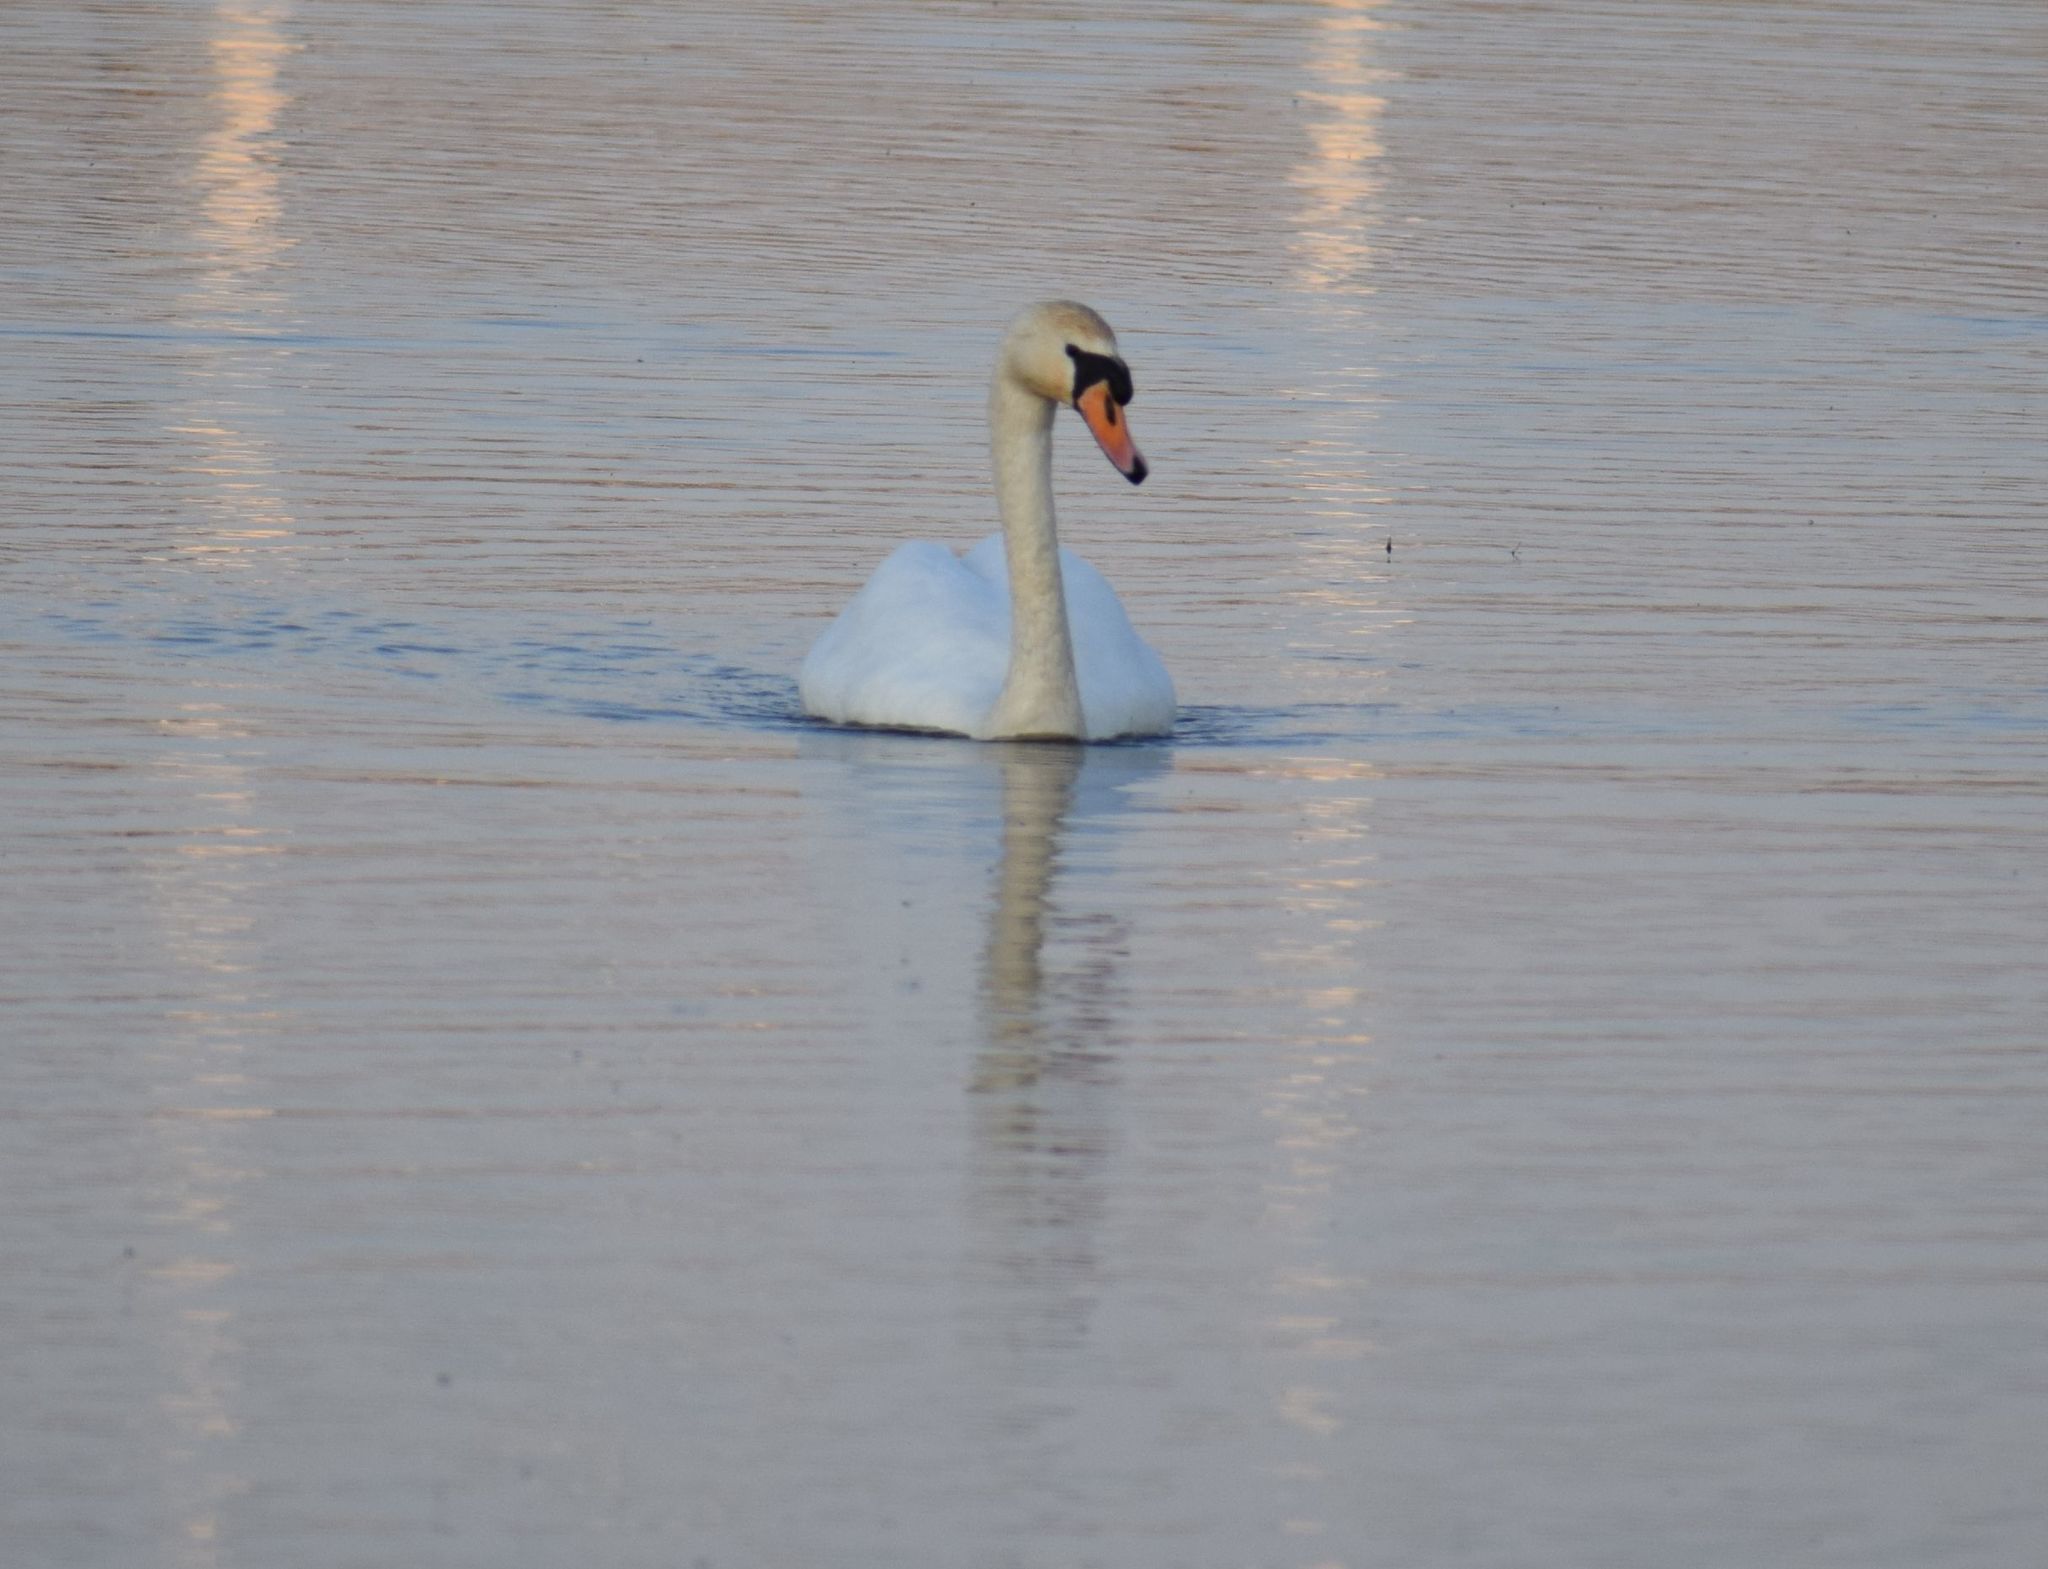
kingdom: Animalia
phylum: Chordata
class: Aves
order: Anseriformes
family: Anatidae
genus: Cygnus
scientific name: Cygnus olor
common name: Mute swan
